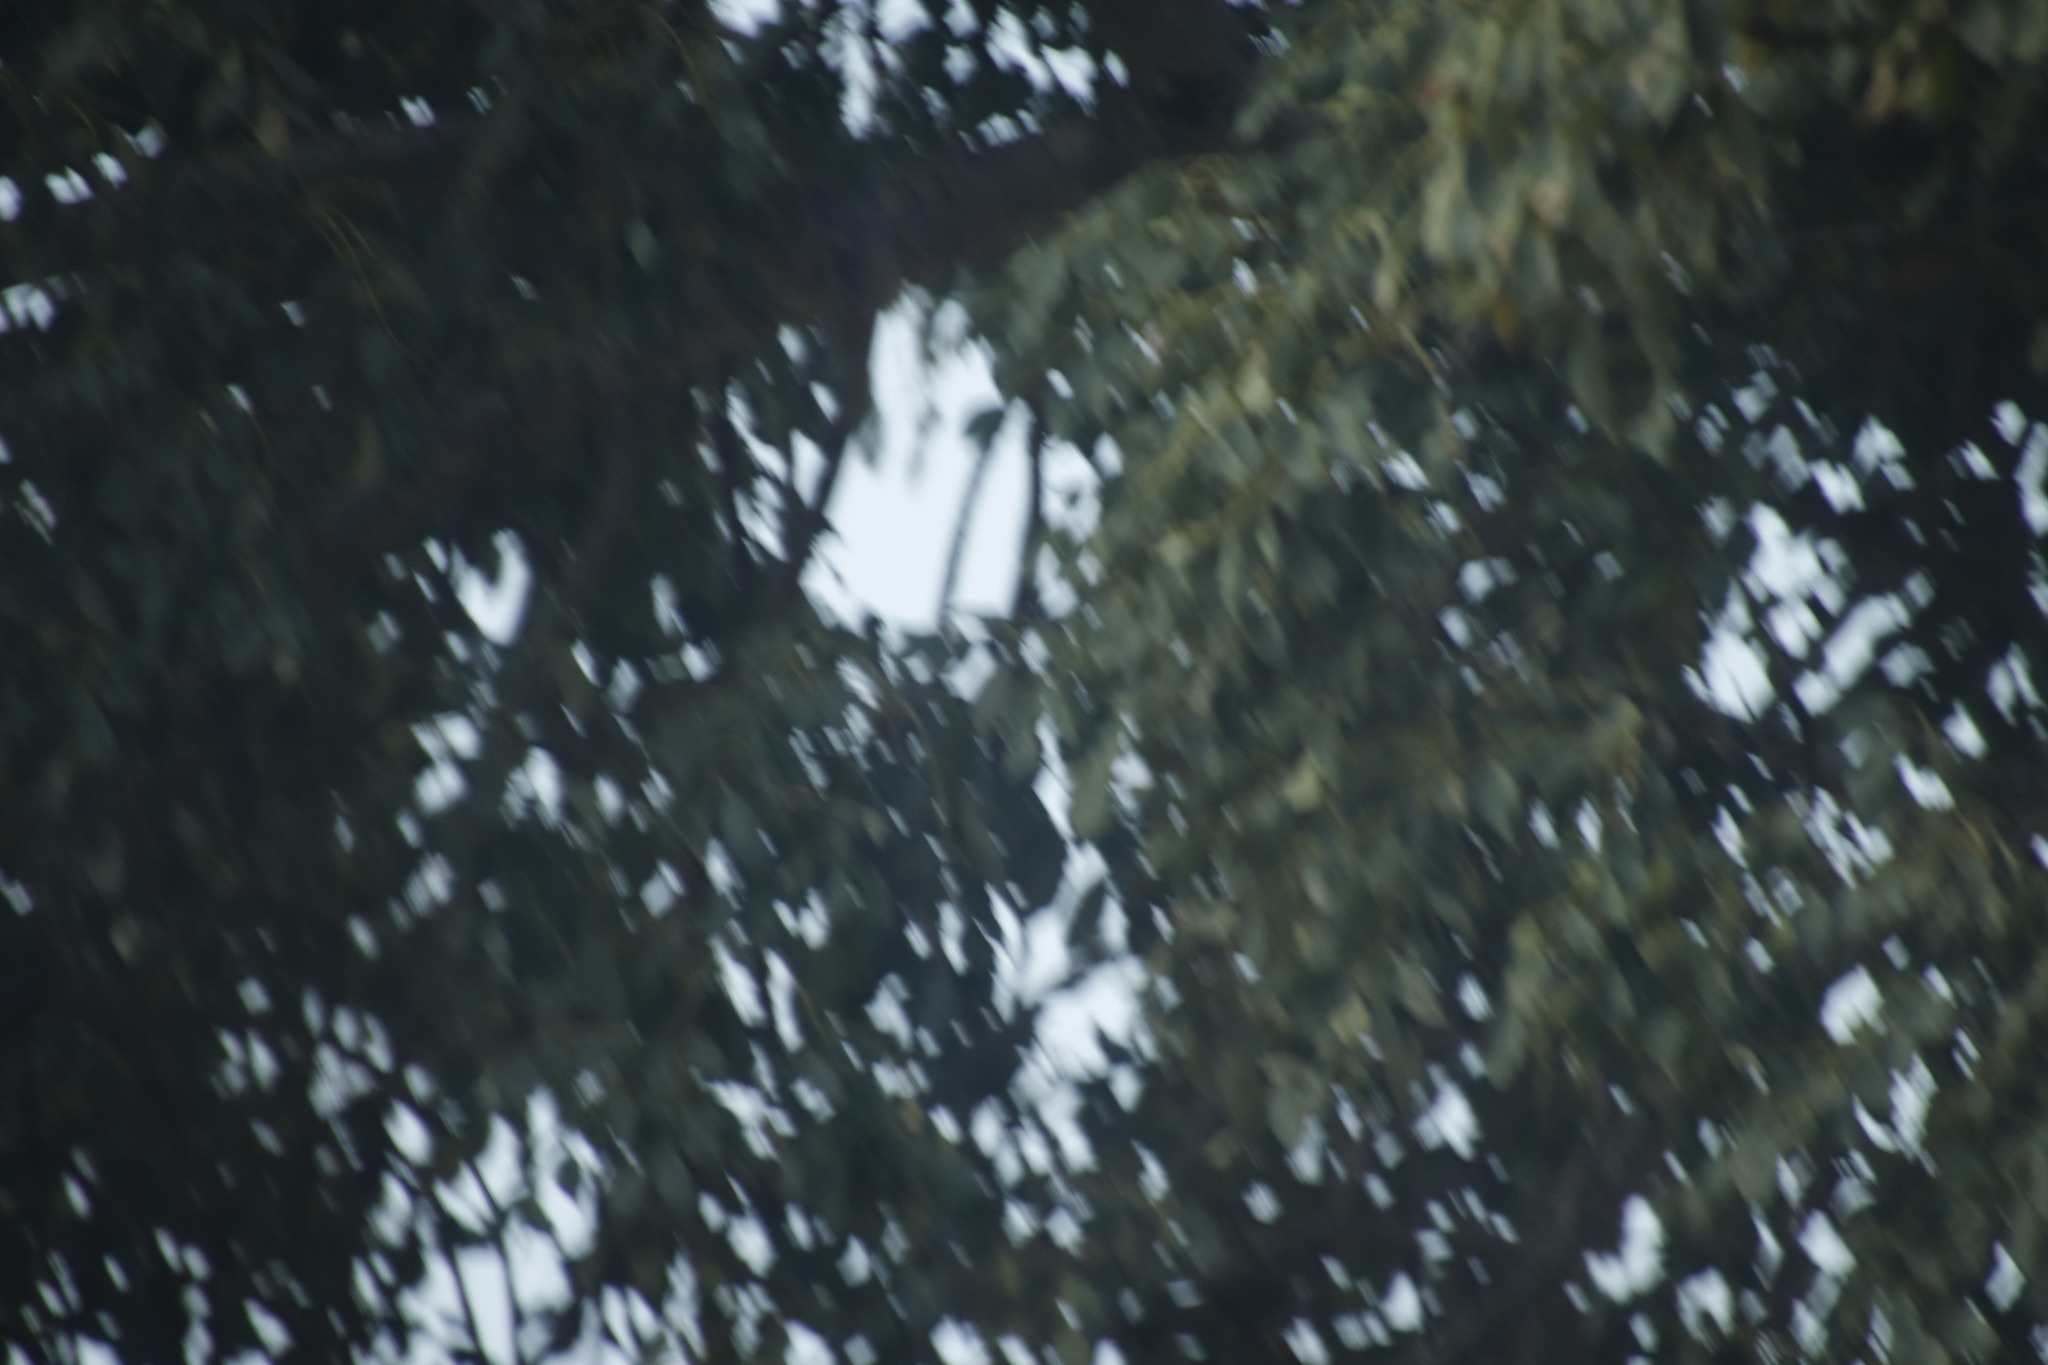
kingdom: Plantae
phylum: Tracheophyta
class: Magnoliopsida
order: Sapindales
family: Anacardiaceae
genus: Sclerocarya
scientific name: Sclerocarya birrea
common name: Marula
